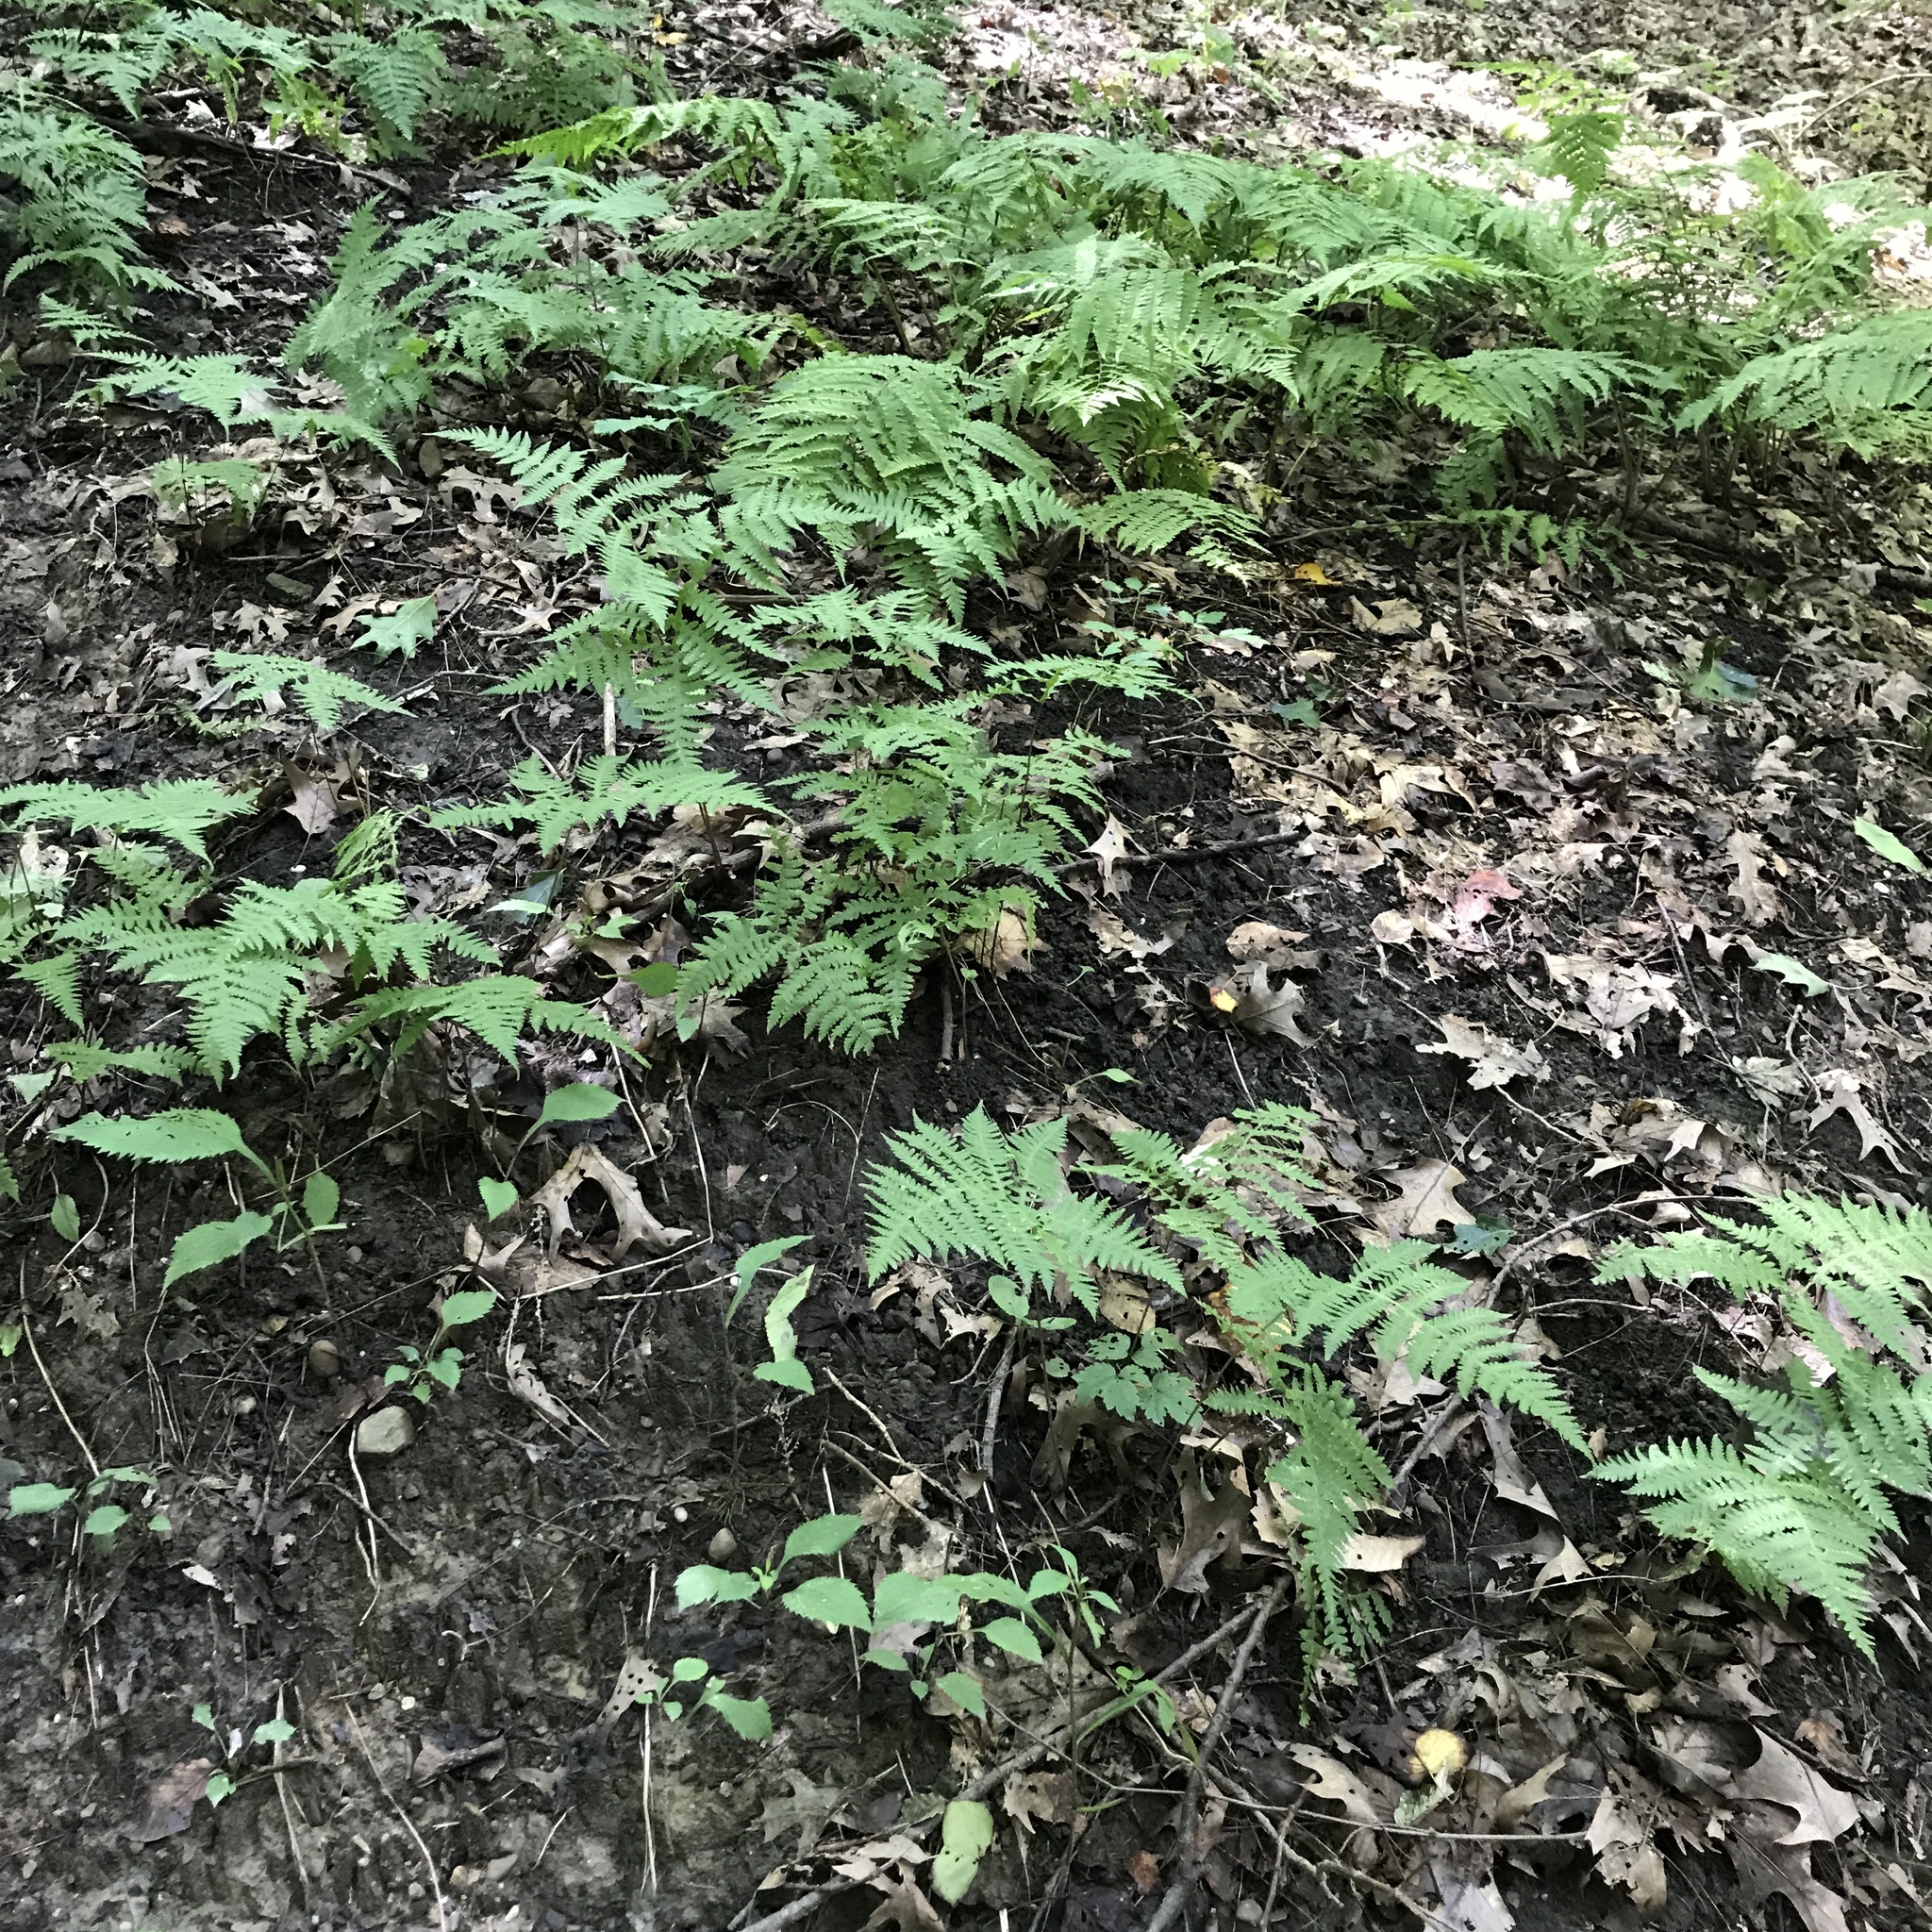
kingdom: Plantae
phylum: Tracheophyta
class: Polypodiopsida
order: Polypodiales
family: Thelypteridaceae
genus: Phegopteris
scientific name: Phegopteris hexagonoptera
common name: Broad beech fern
